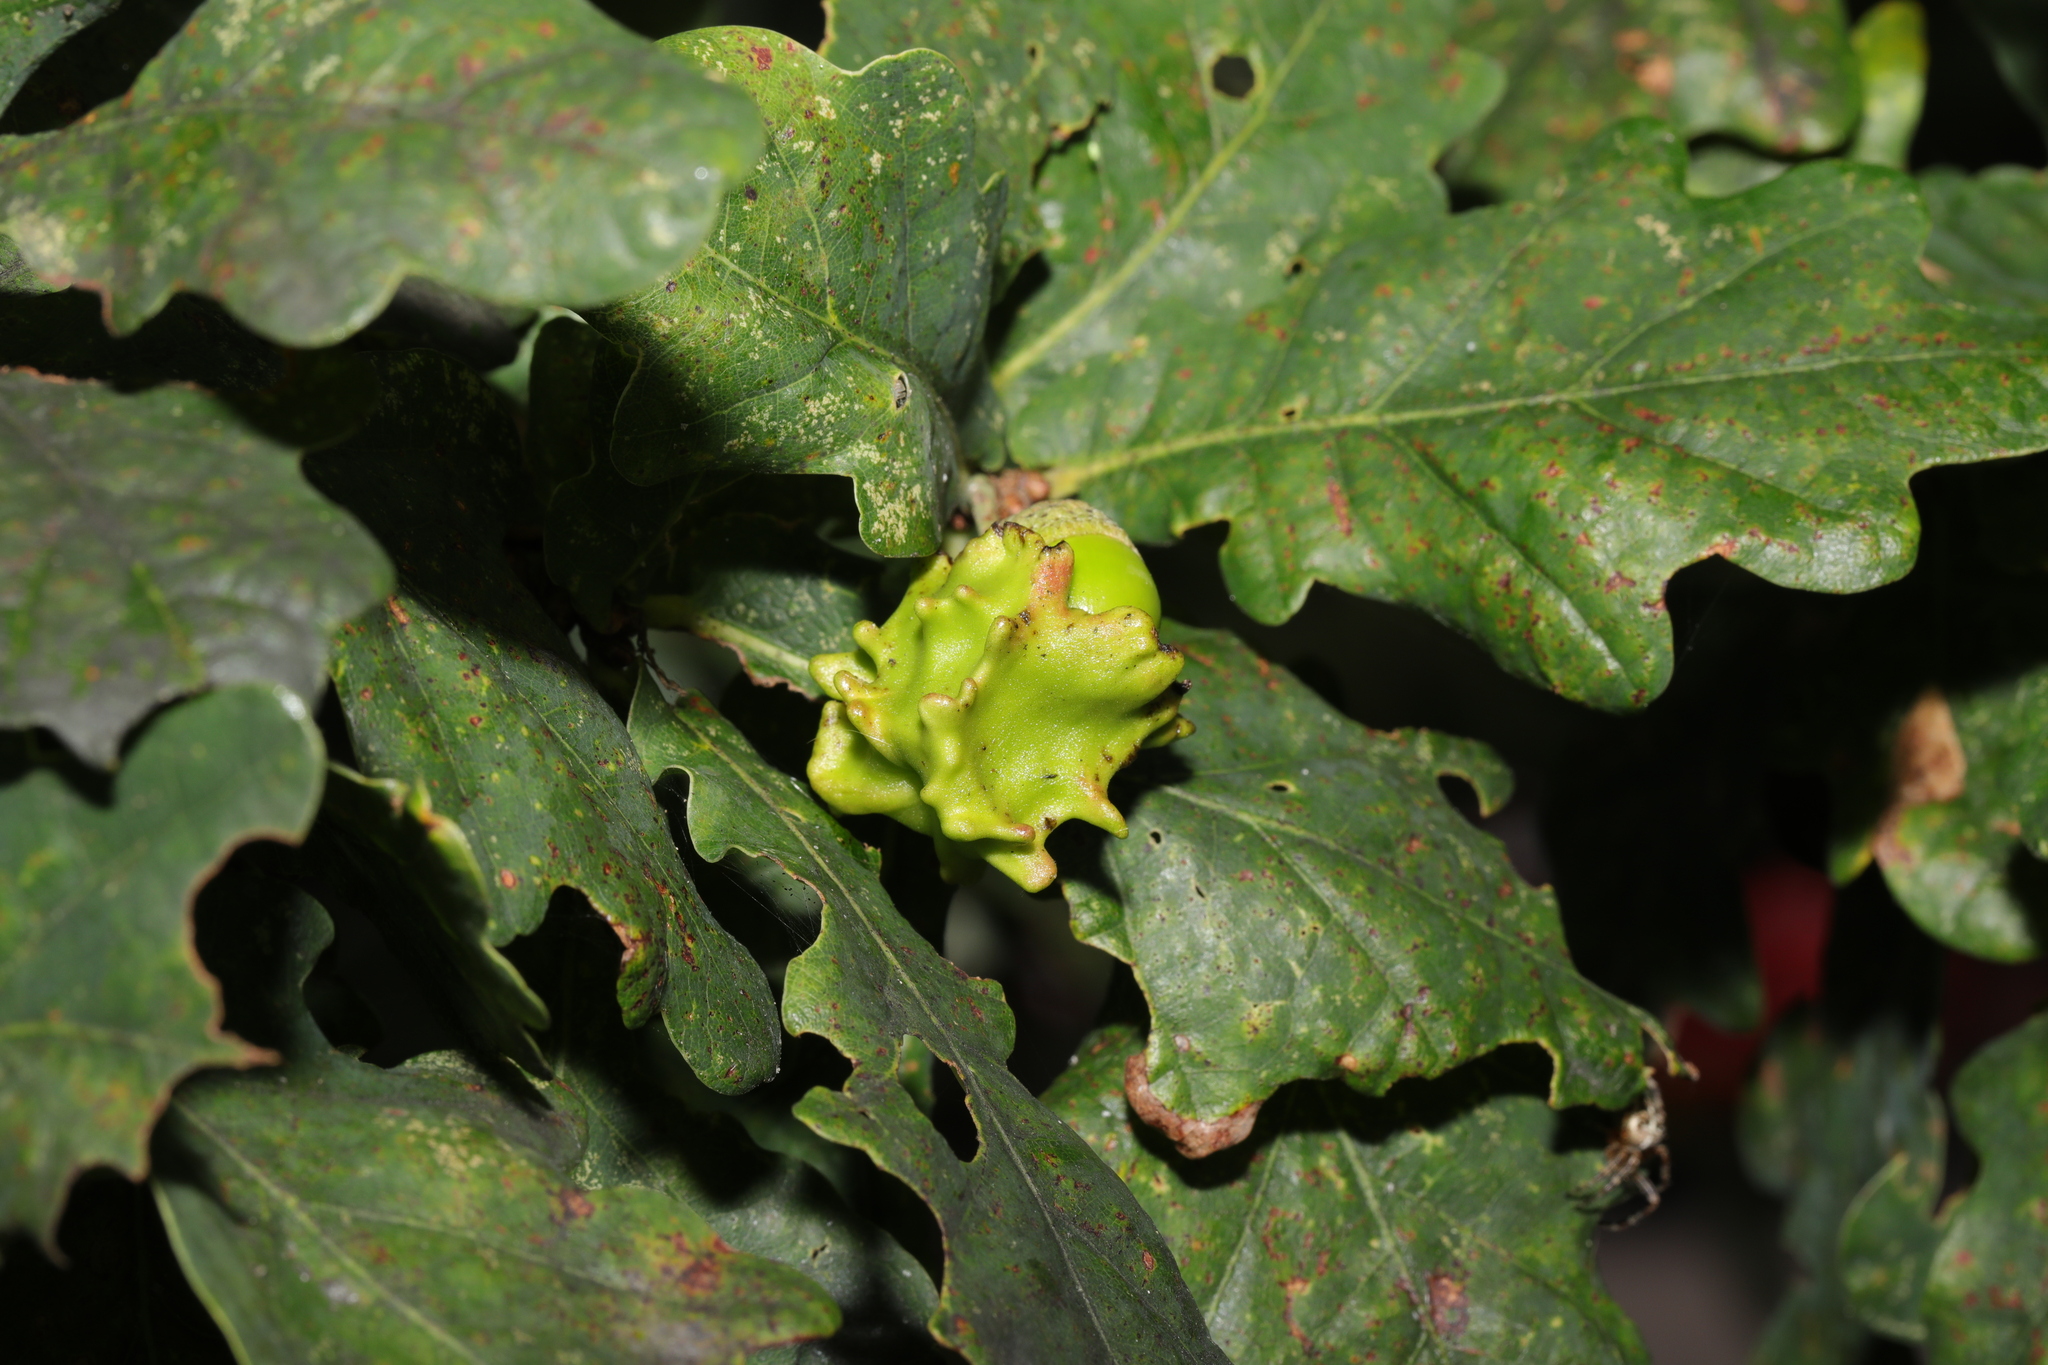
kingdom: Animalia
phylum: Arthropoda
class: Insecta
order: Hymenoptera
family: Cynipidae
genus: Andricus
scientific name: Andricus quercuscalicis
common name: Knopper gall
